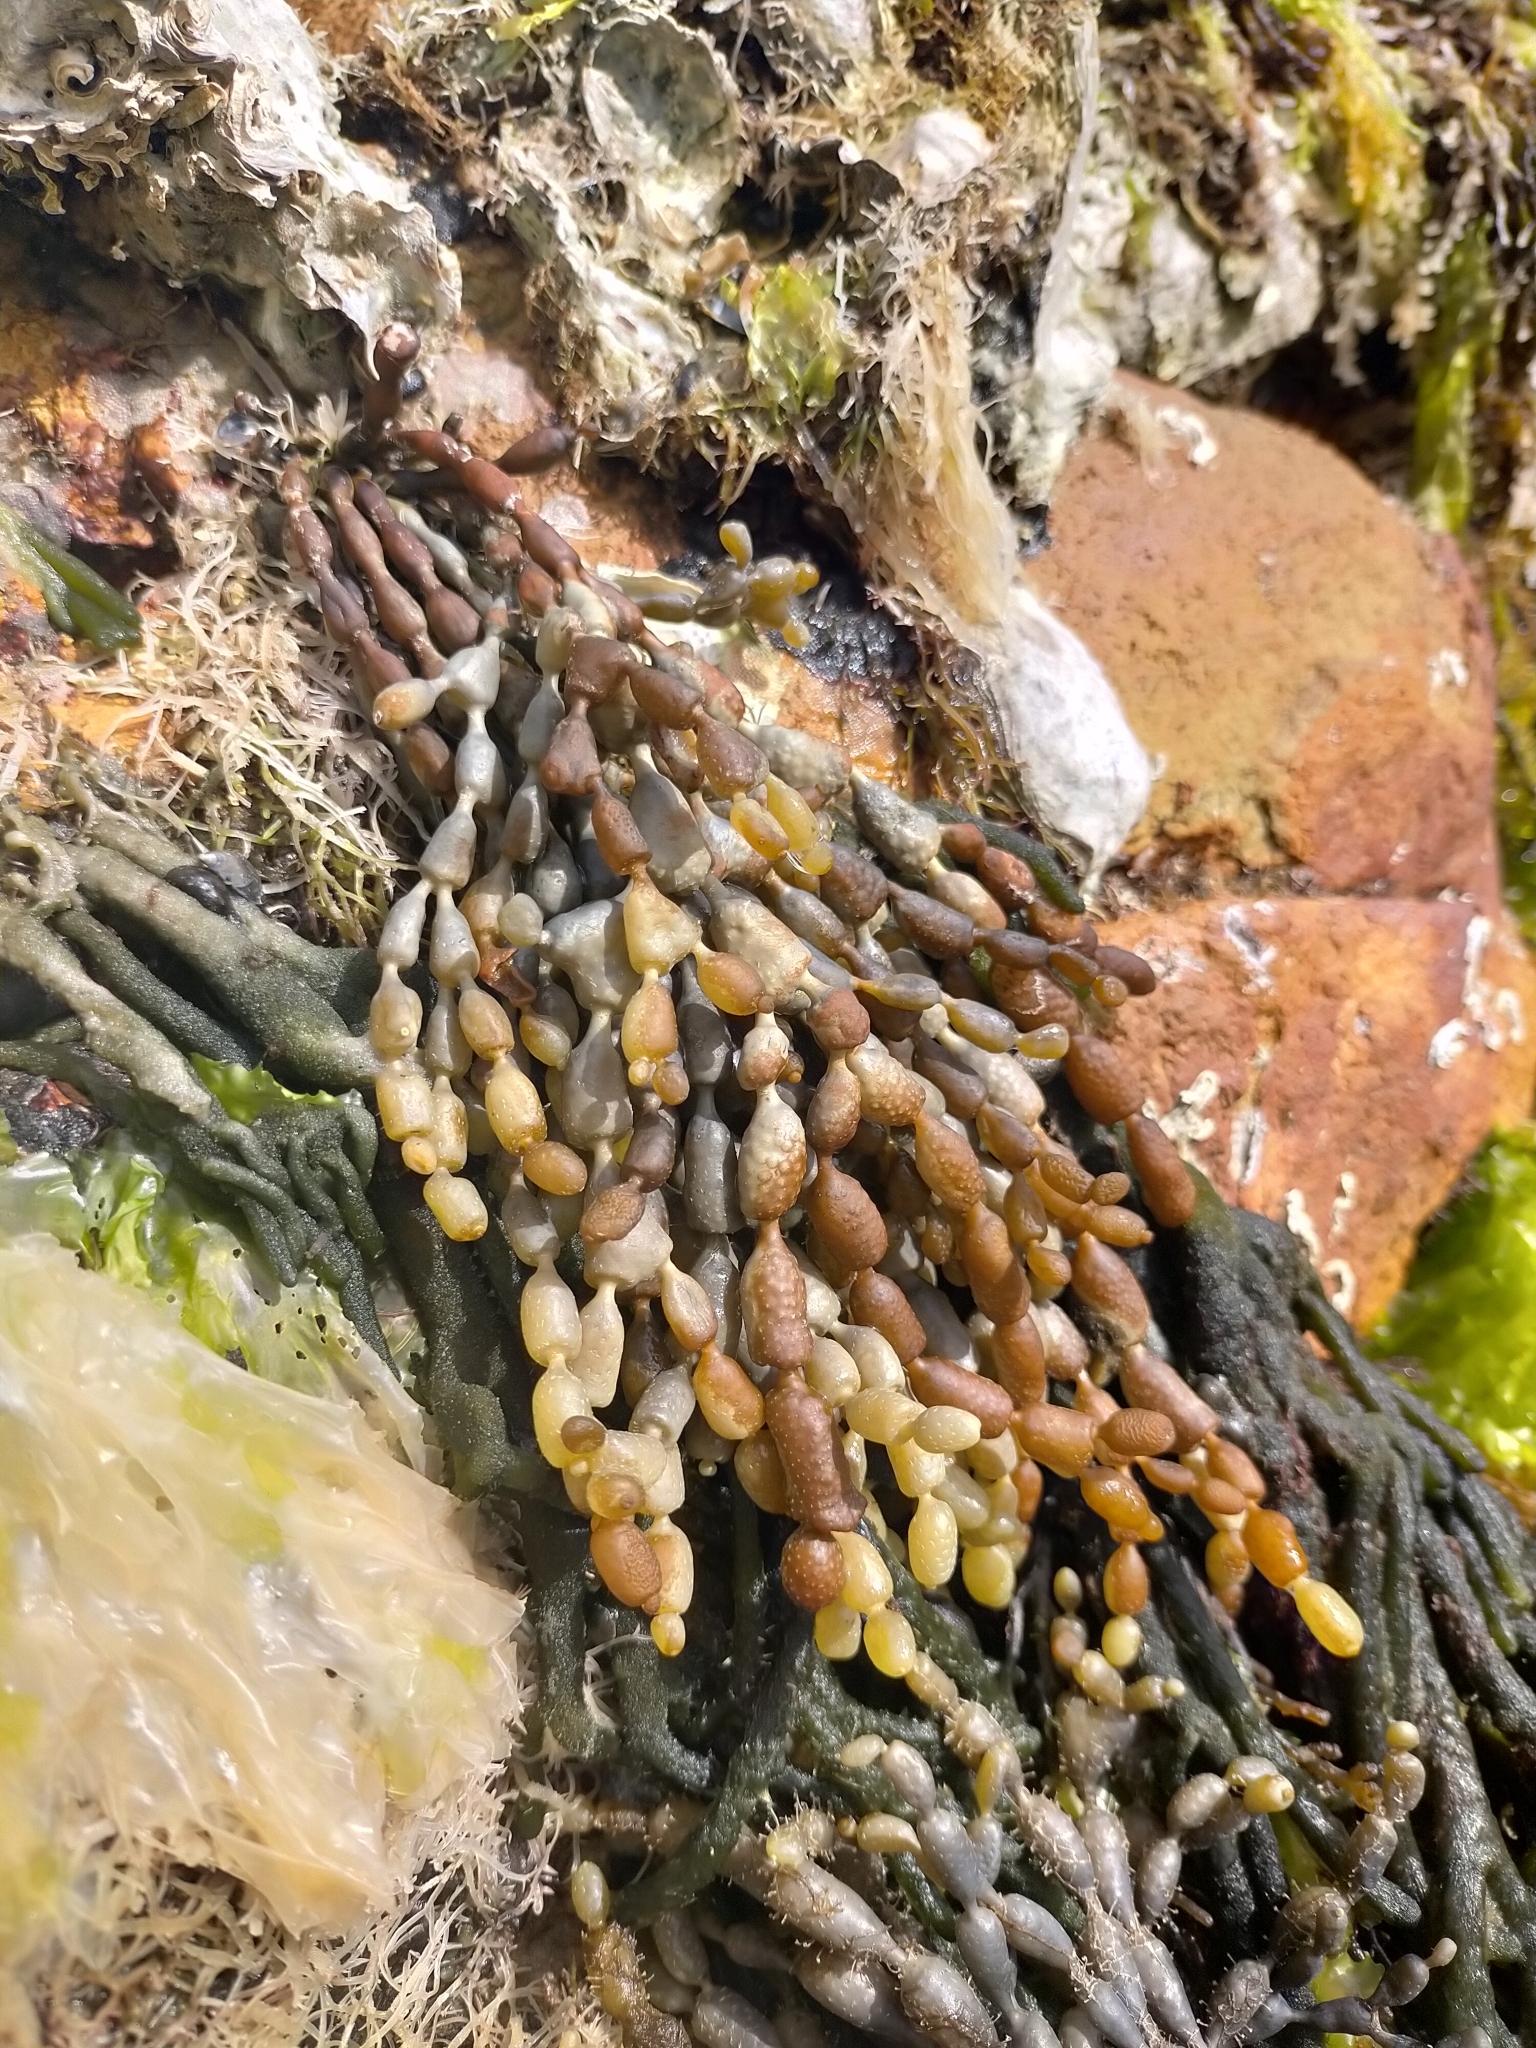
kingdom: Chromista
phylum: Ochrophyta
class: Phaeophyceae
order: Fucales
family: Hormosiraceae
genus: Hormosira
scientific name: Hormosira banksii
